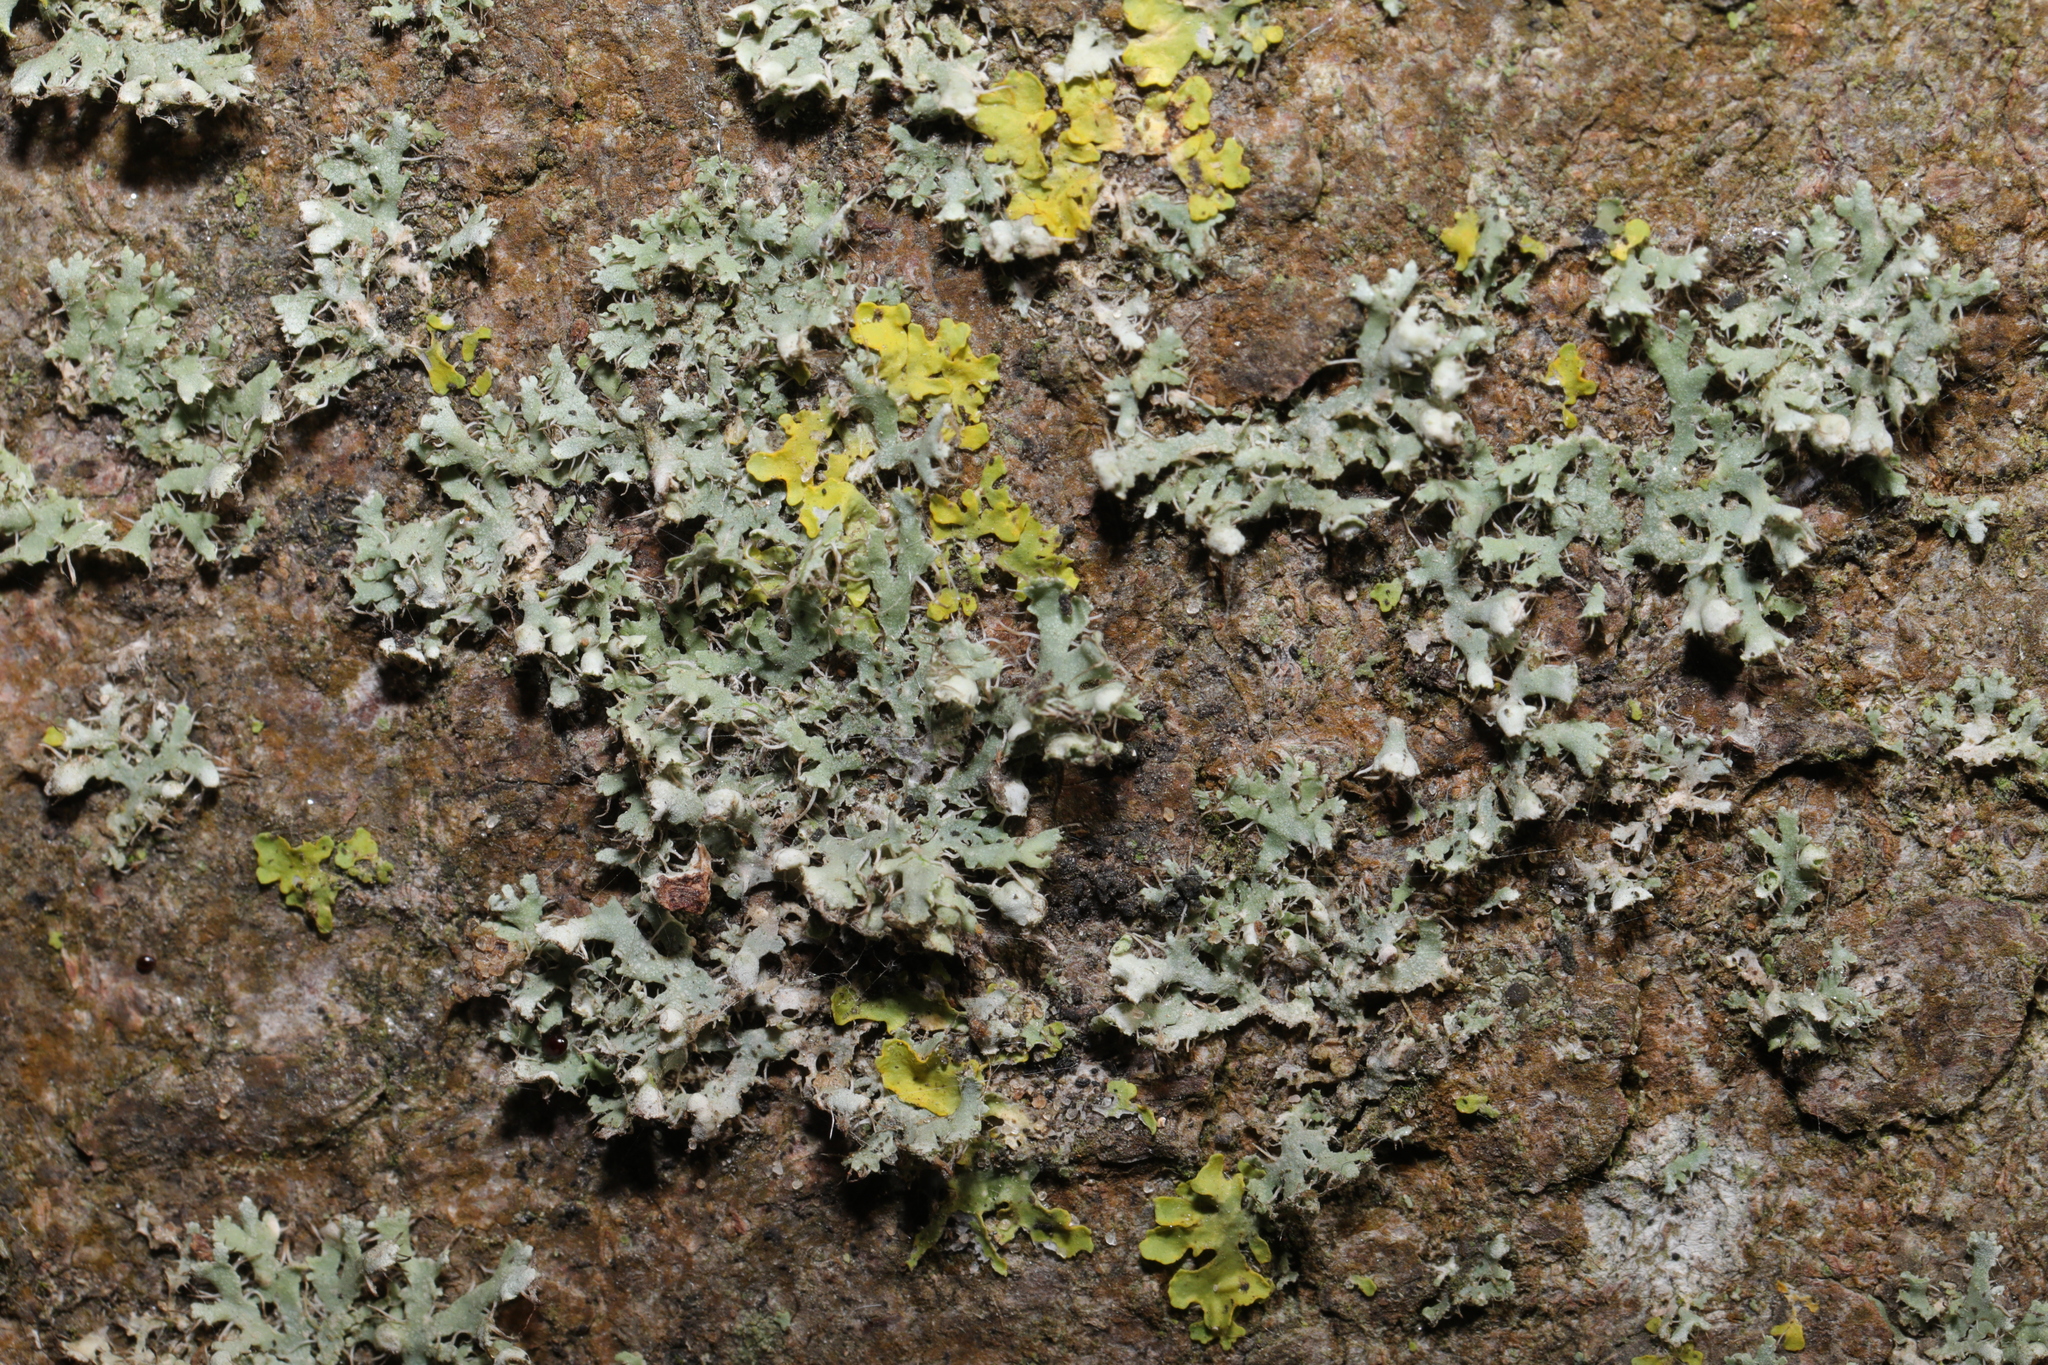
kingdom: Fungi
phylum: Ascomycota
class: Lecanoromycetes
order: Caliciales
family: Physciaceae
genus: Physcia
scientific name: Physcia adscendens
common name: Hooded rosette lichen
